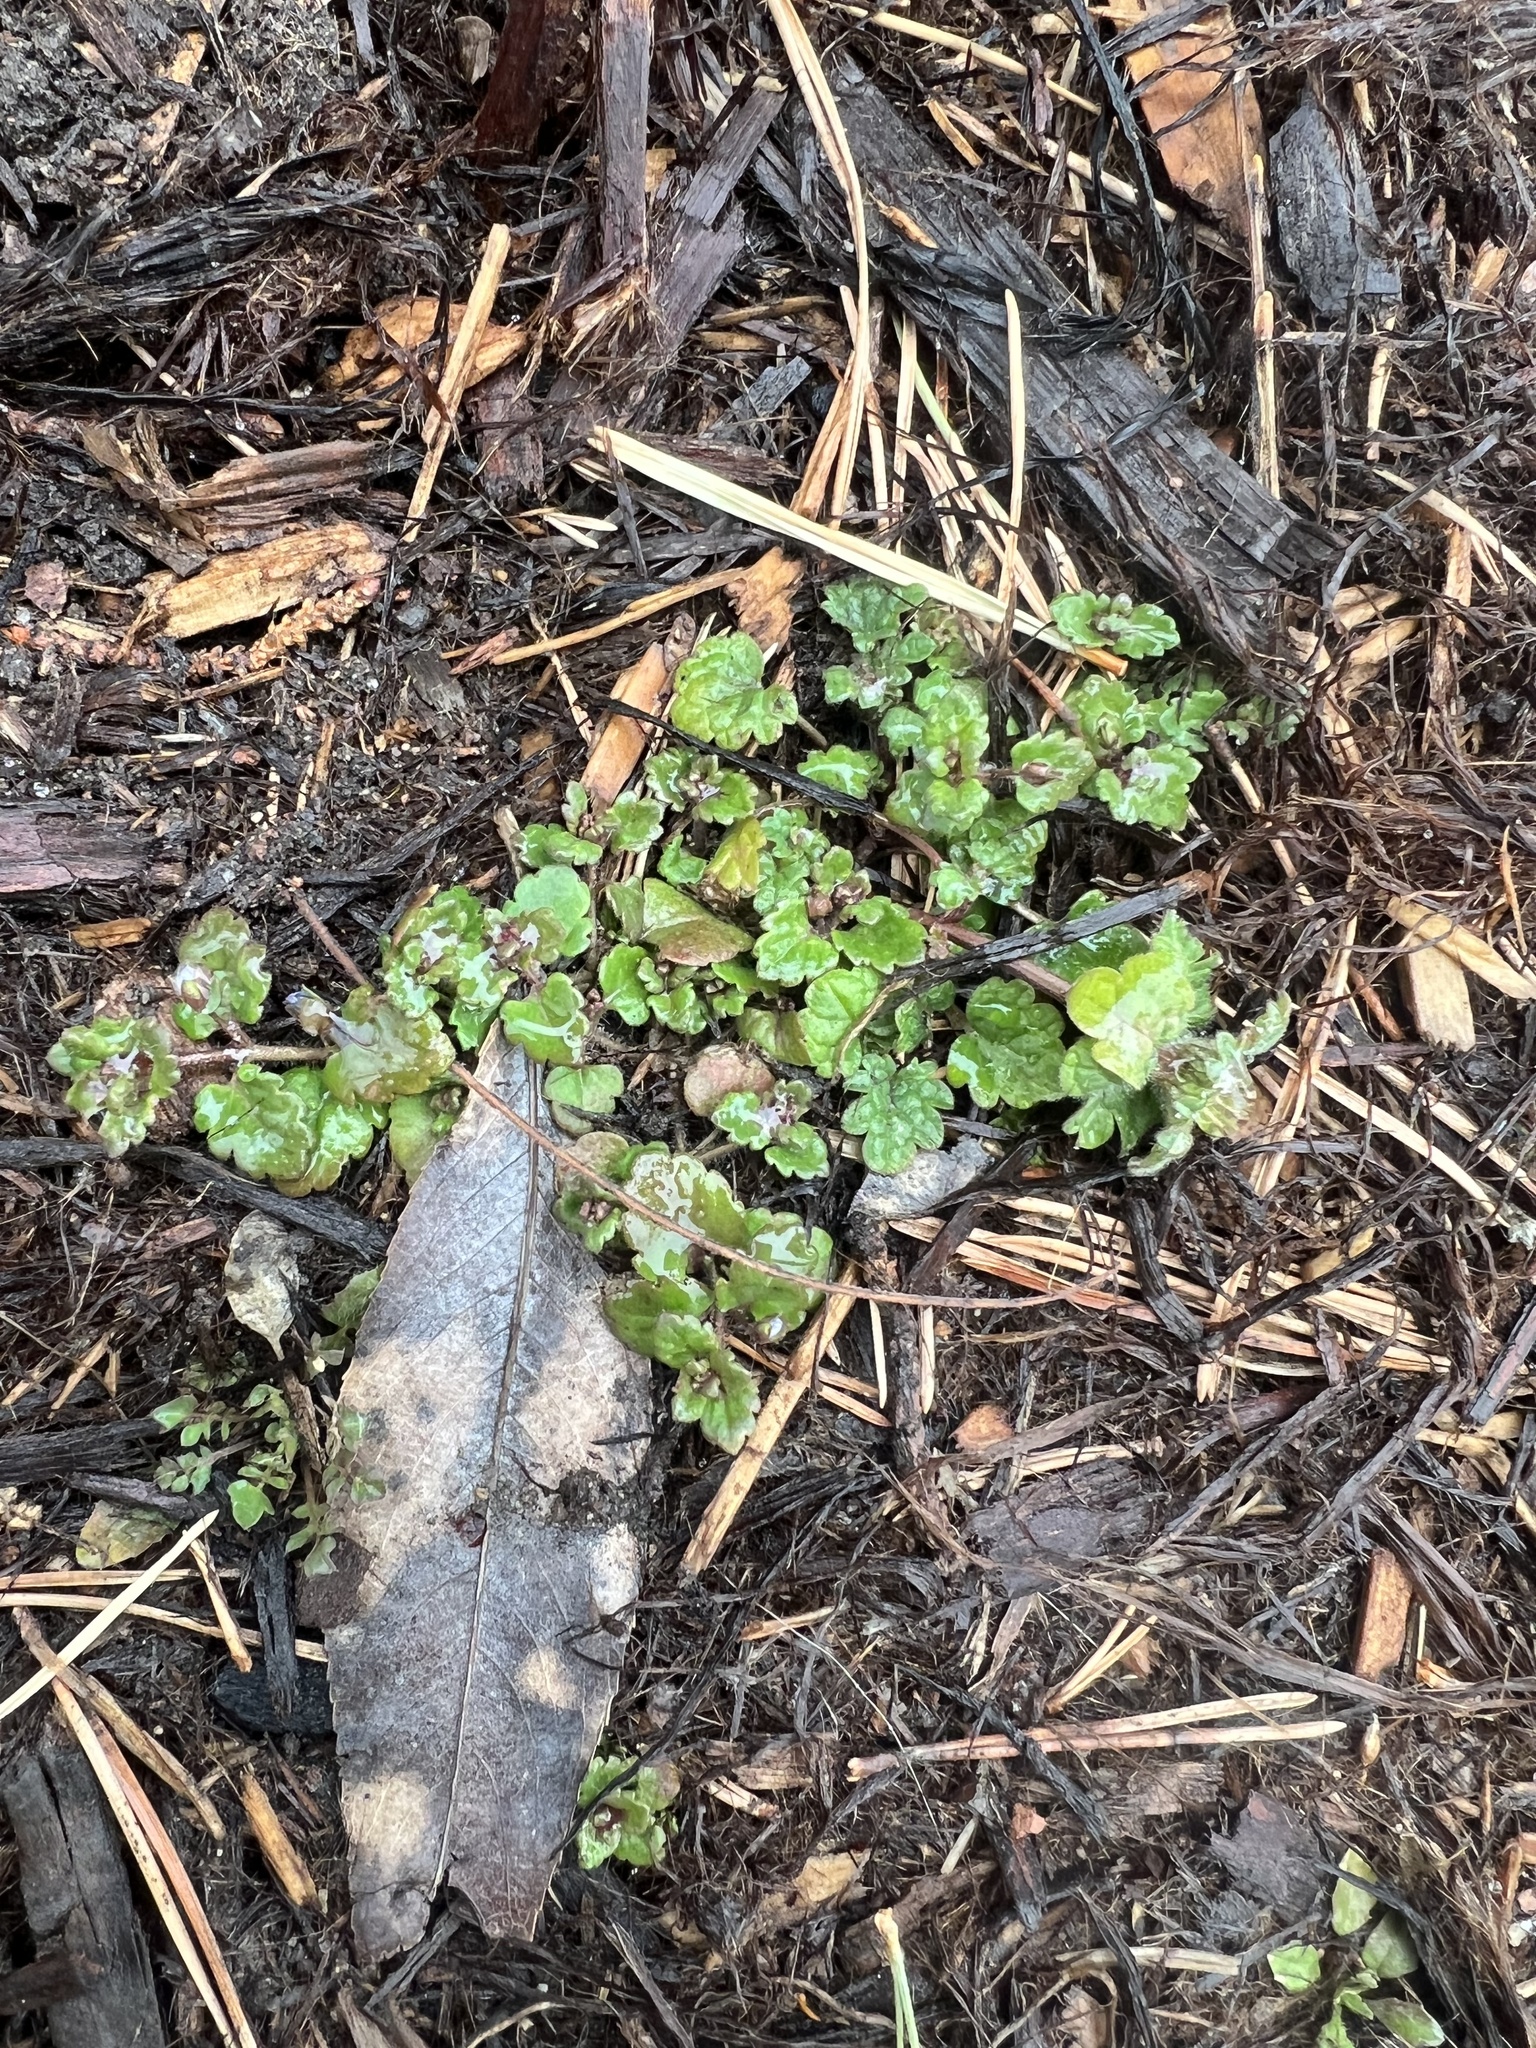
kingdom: Plantae
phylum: Tracheophyta
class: Magnoliopsida
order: Lamiales
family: Plantaginaceae
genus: Veronica
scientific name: Veronica polita
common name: Grey field-speedwell
